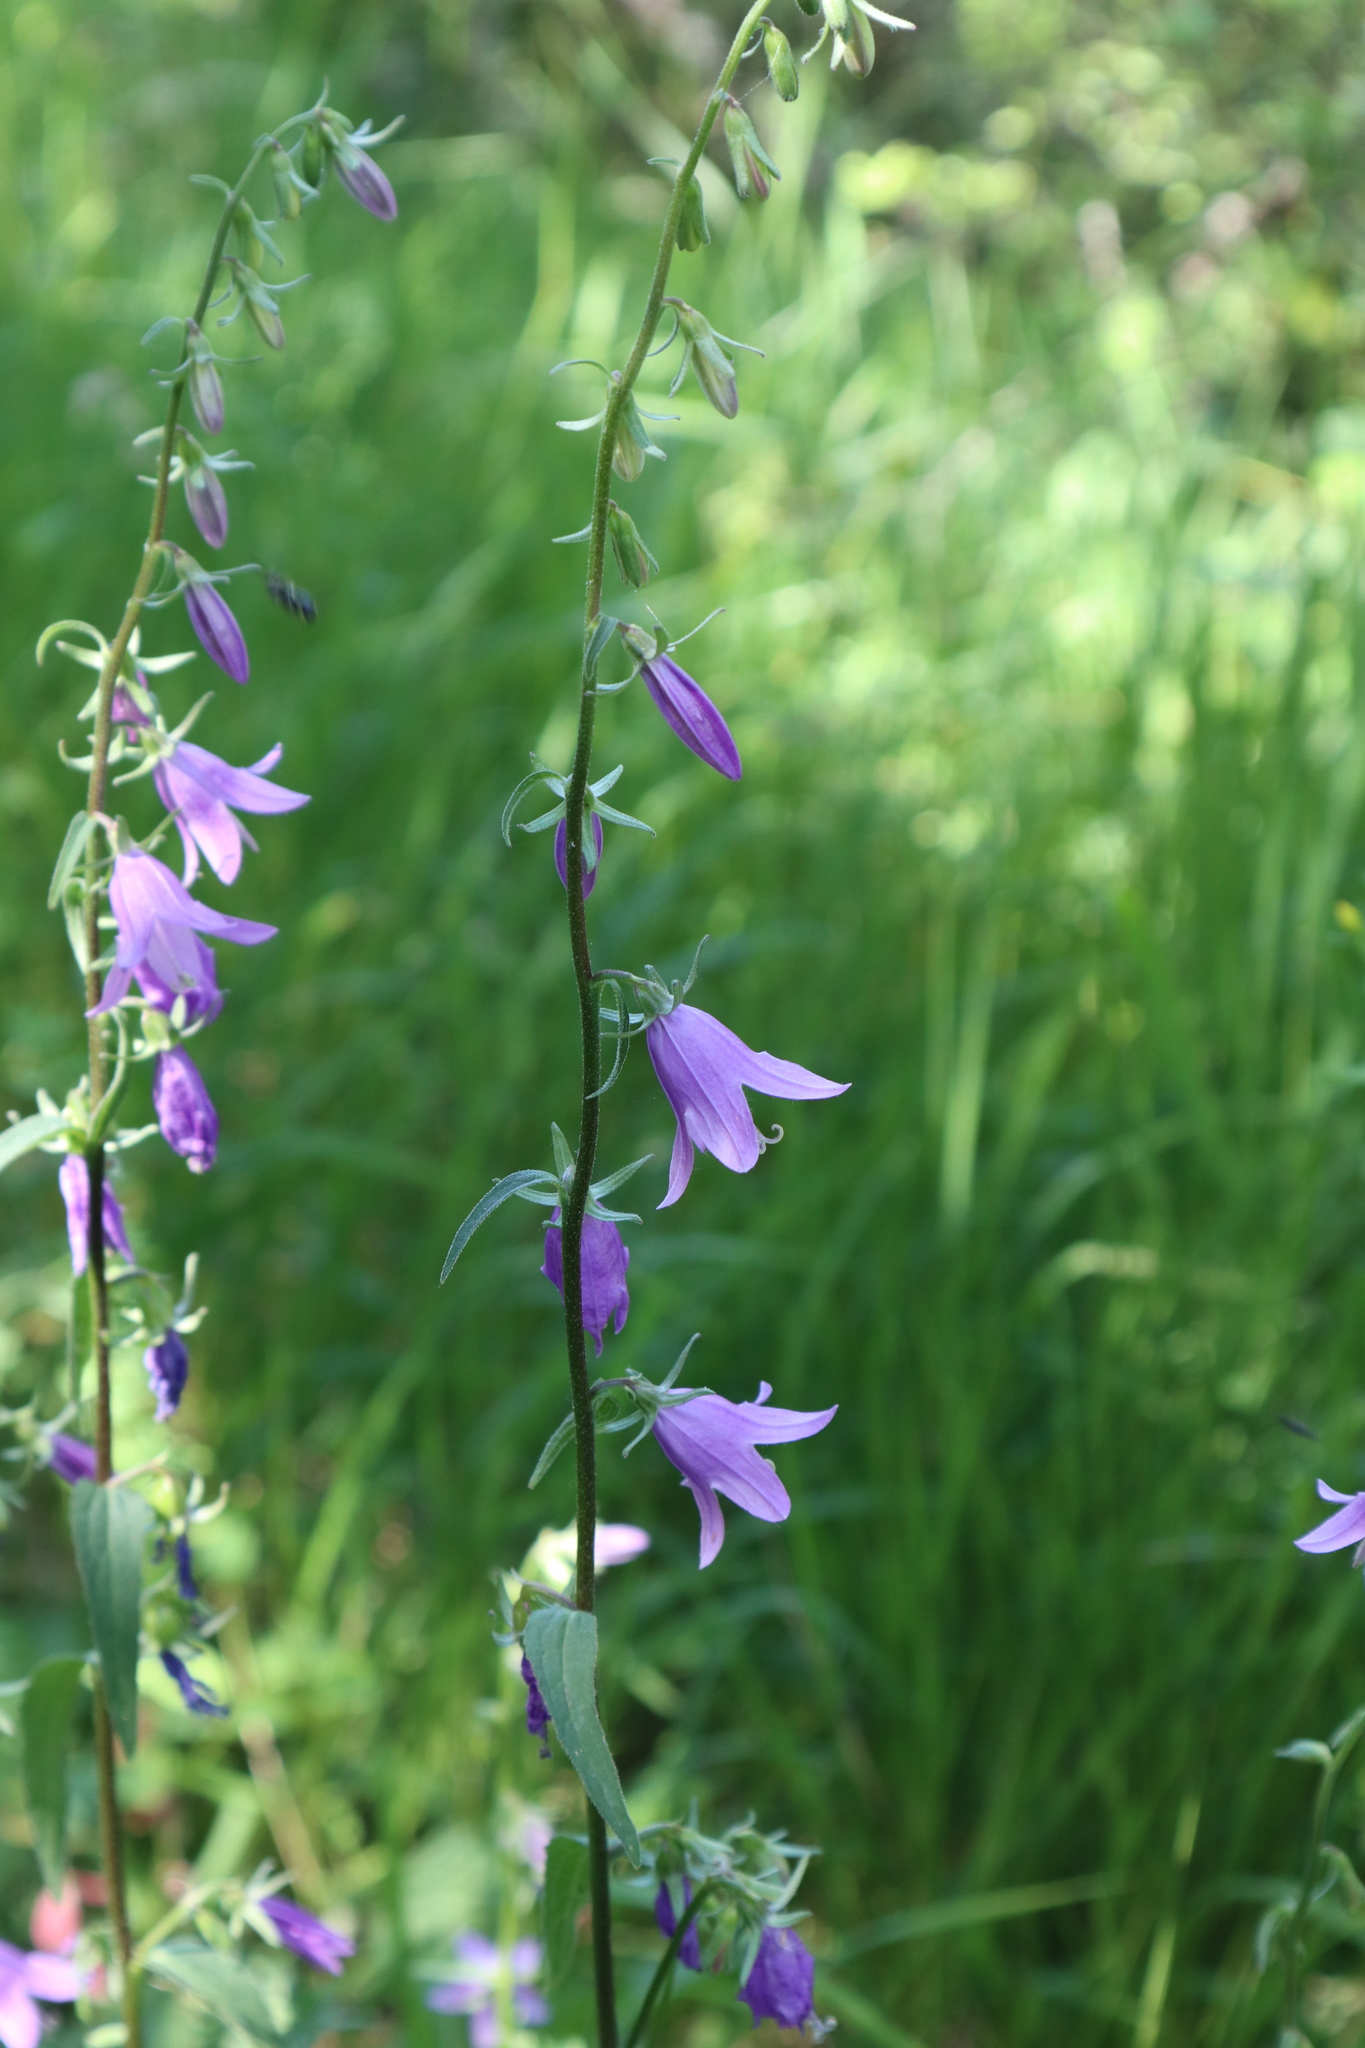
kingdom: Plantae
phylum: Tracheophyta
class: Magnoliopsida
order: Asterales
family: Campanulaceae
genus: Campanula
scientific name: Campanula rapunculoides
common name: Creeping bellflower
